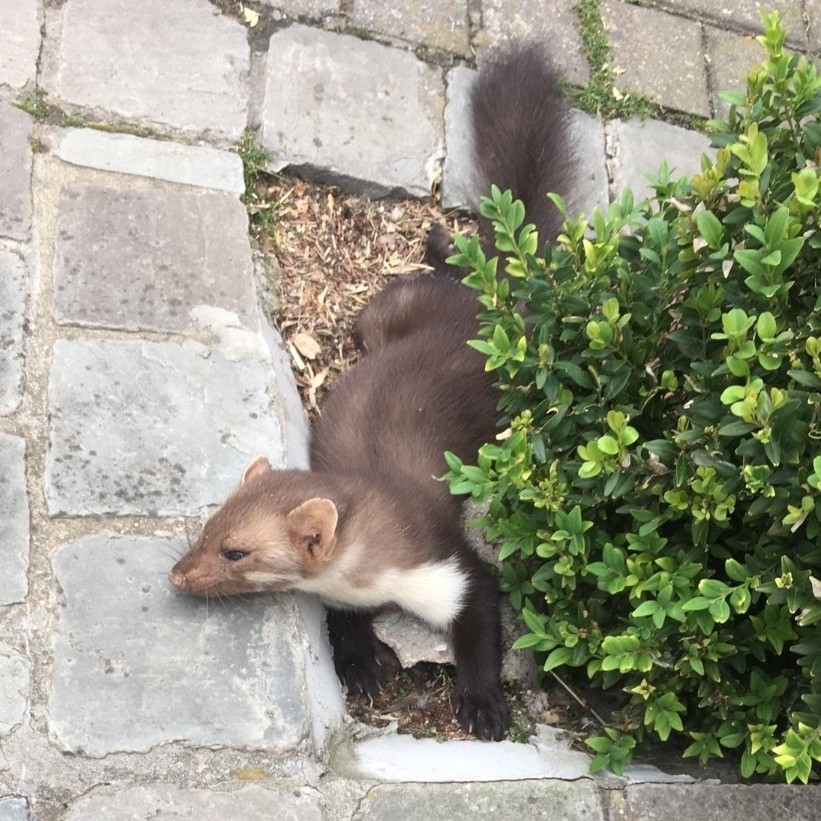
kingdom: Animalia
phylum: Chordata
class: Mammalia
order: Carnivora
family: Mustelidae
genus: Martes
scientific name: Martes foina
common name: Beech marten
